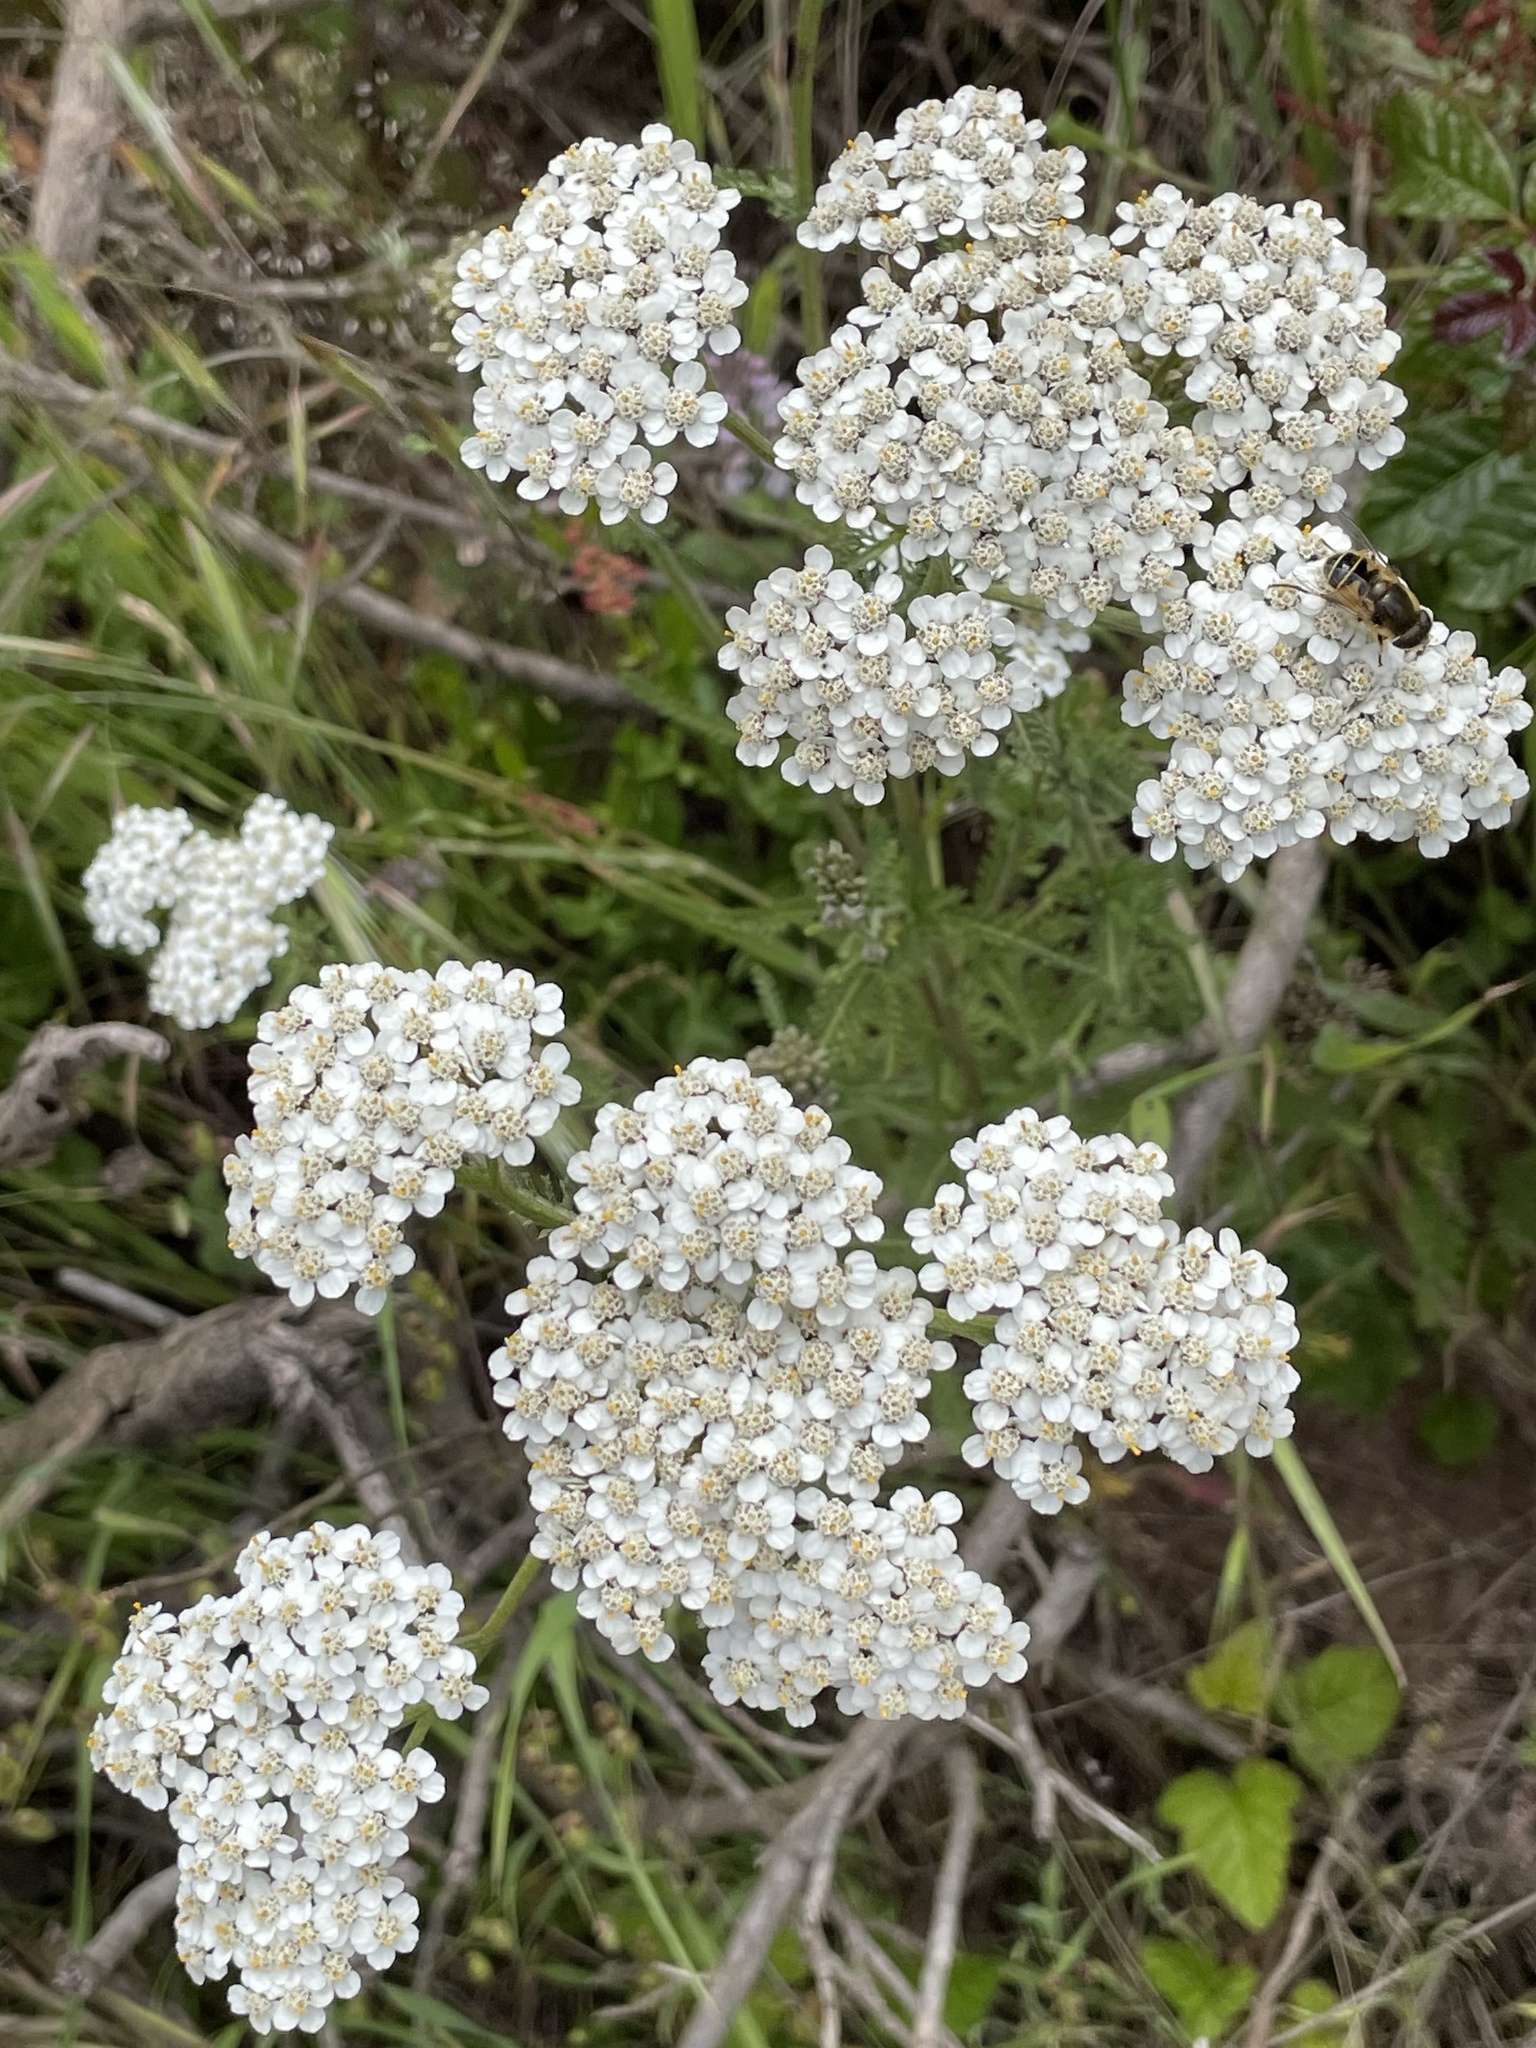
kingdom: Plantae
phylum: Tracheophyta
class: Magnoliopsida
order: Asterales
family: Asteraceae
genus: Achillea
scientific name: Achillea millefolium
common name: Yarrow
